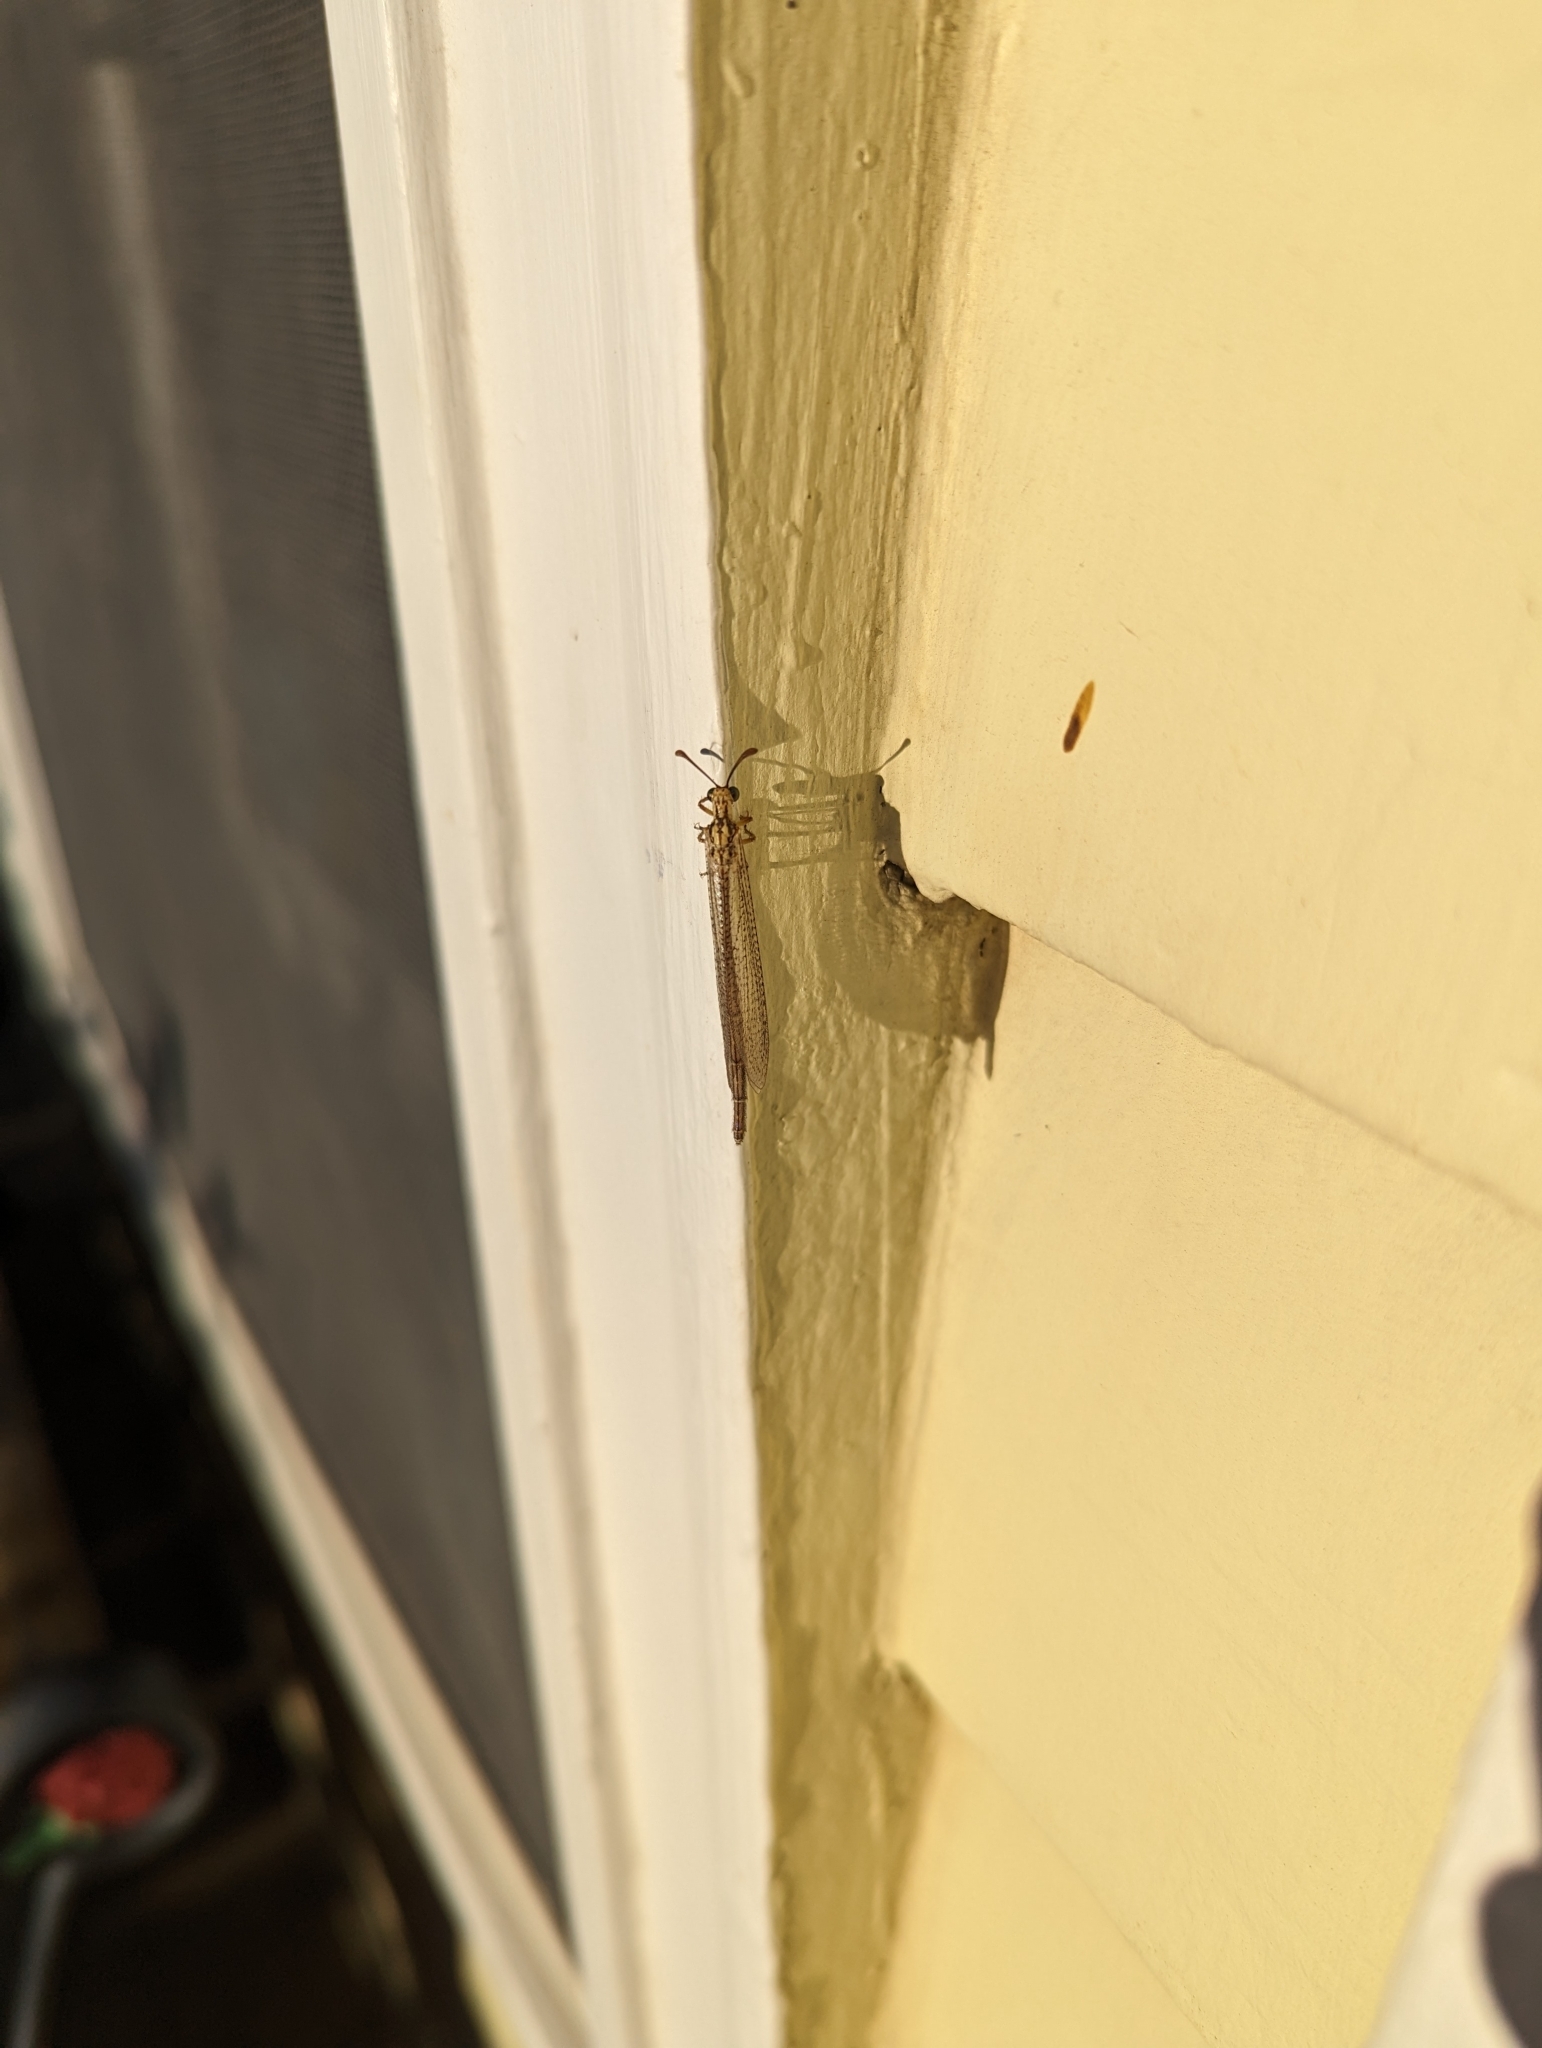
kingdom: Animalia
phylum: Arthropoda
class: Insecta
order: Neuroptera
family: Myrmeleontidae
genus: Brachynemurus
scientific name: Brachynemurus abdominalis
